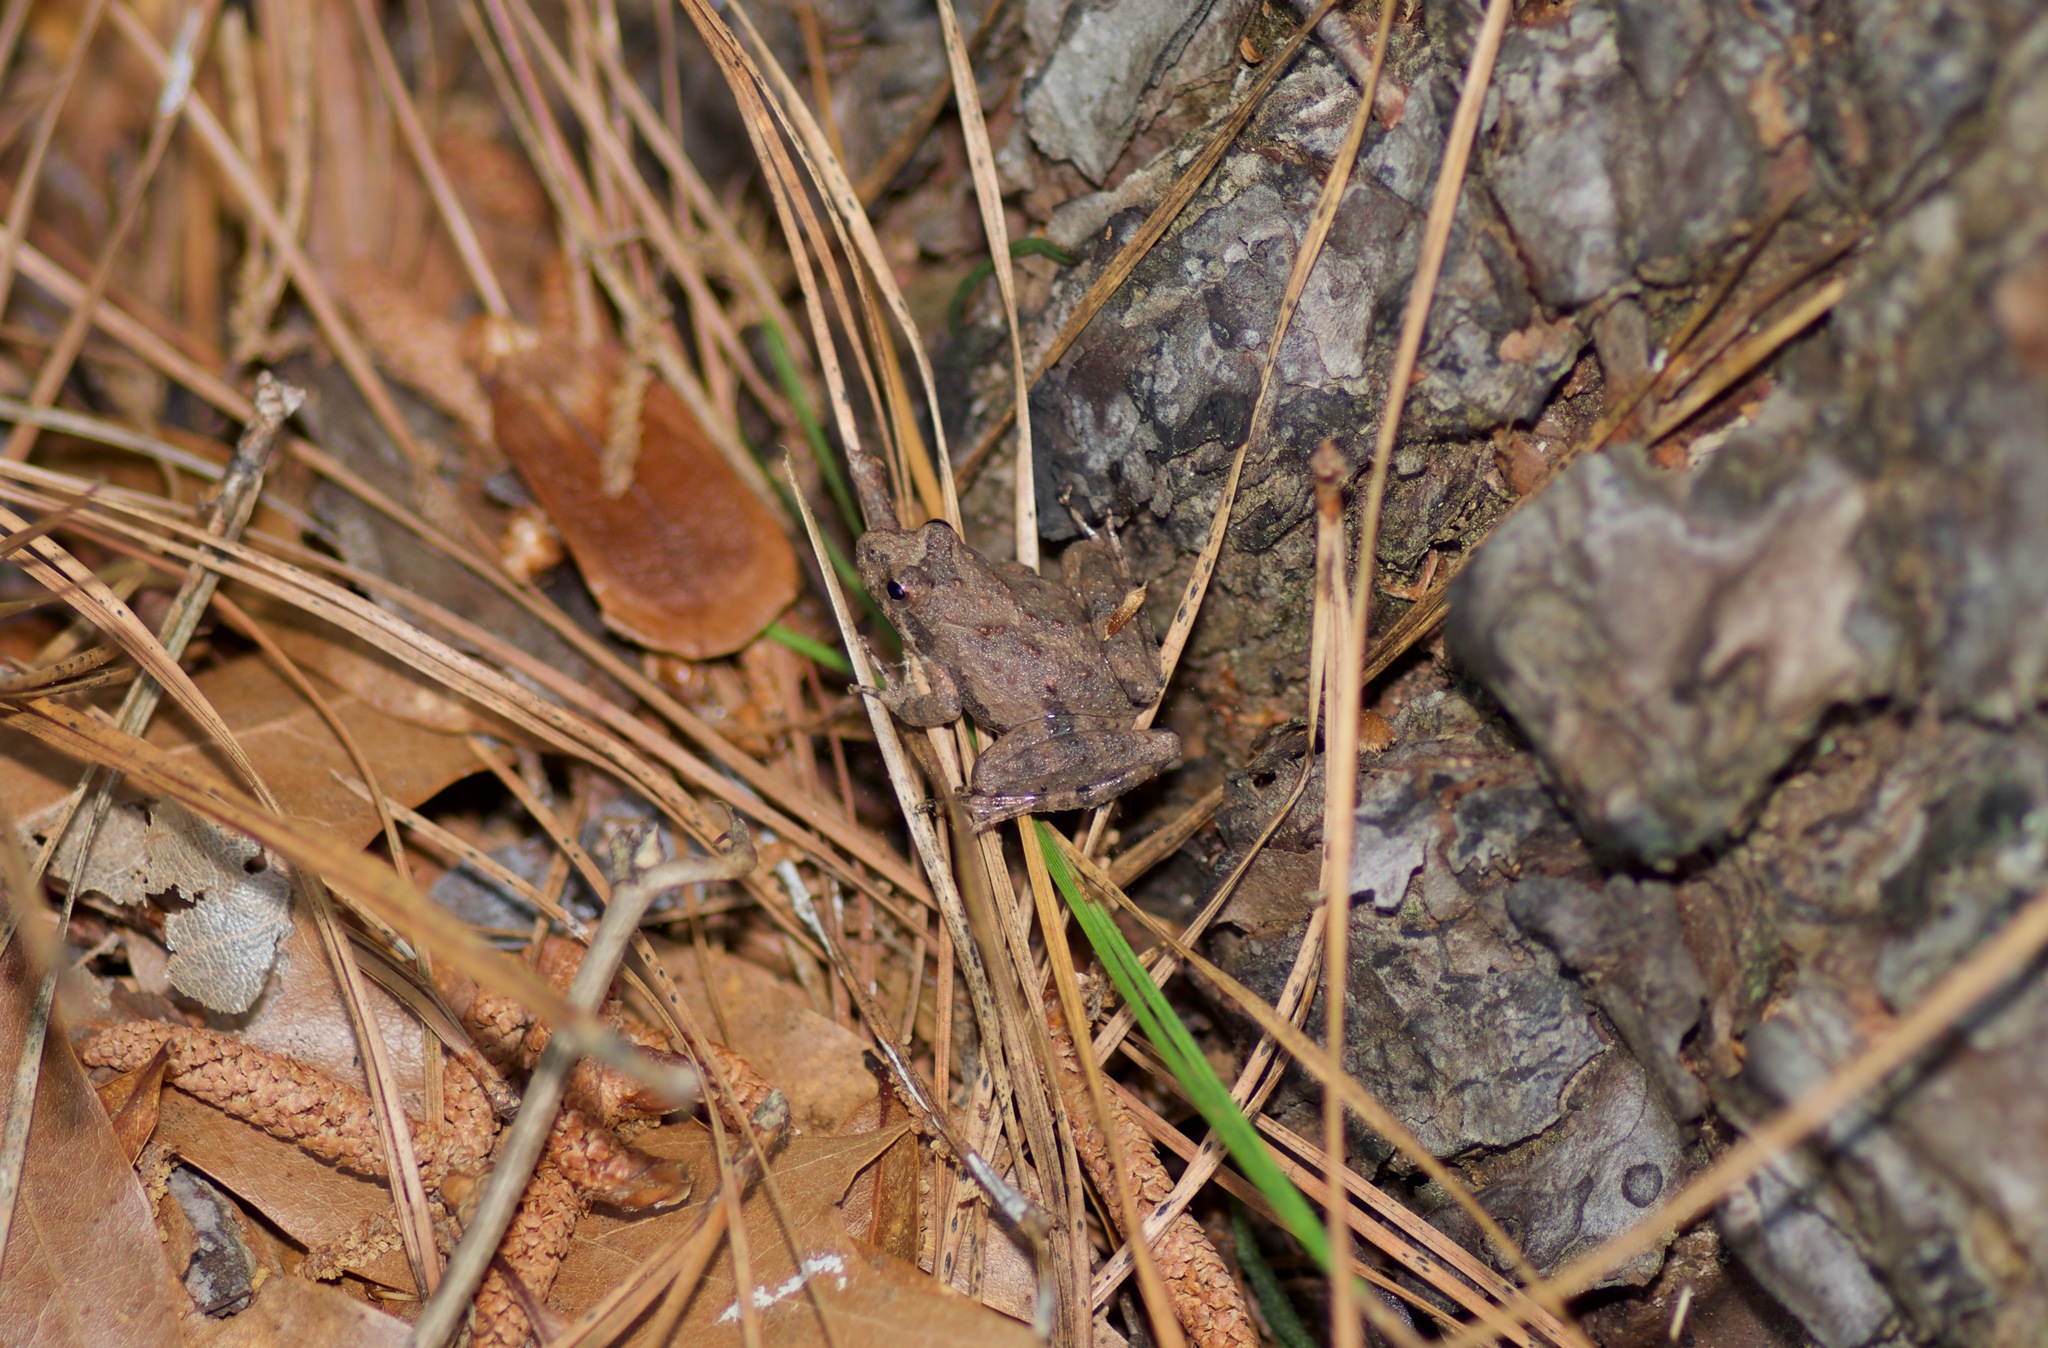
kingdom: Animalia
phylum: Chordata
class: Amphibia
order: Anura
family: Hylidae
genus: Acris
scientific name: Acris blanchardi
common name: Blanchard's cricket frog
